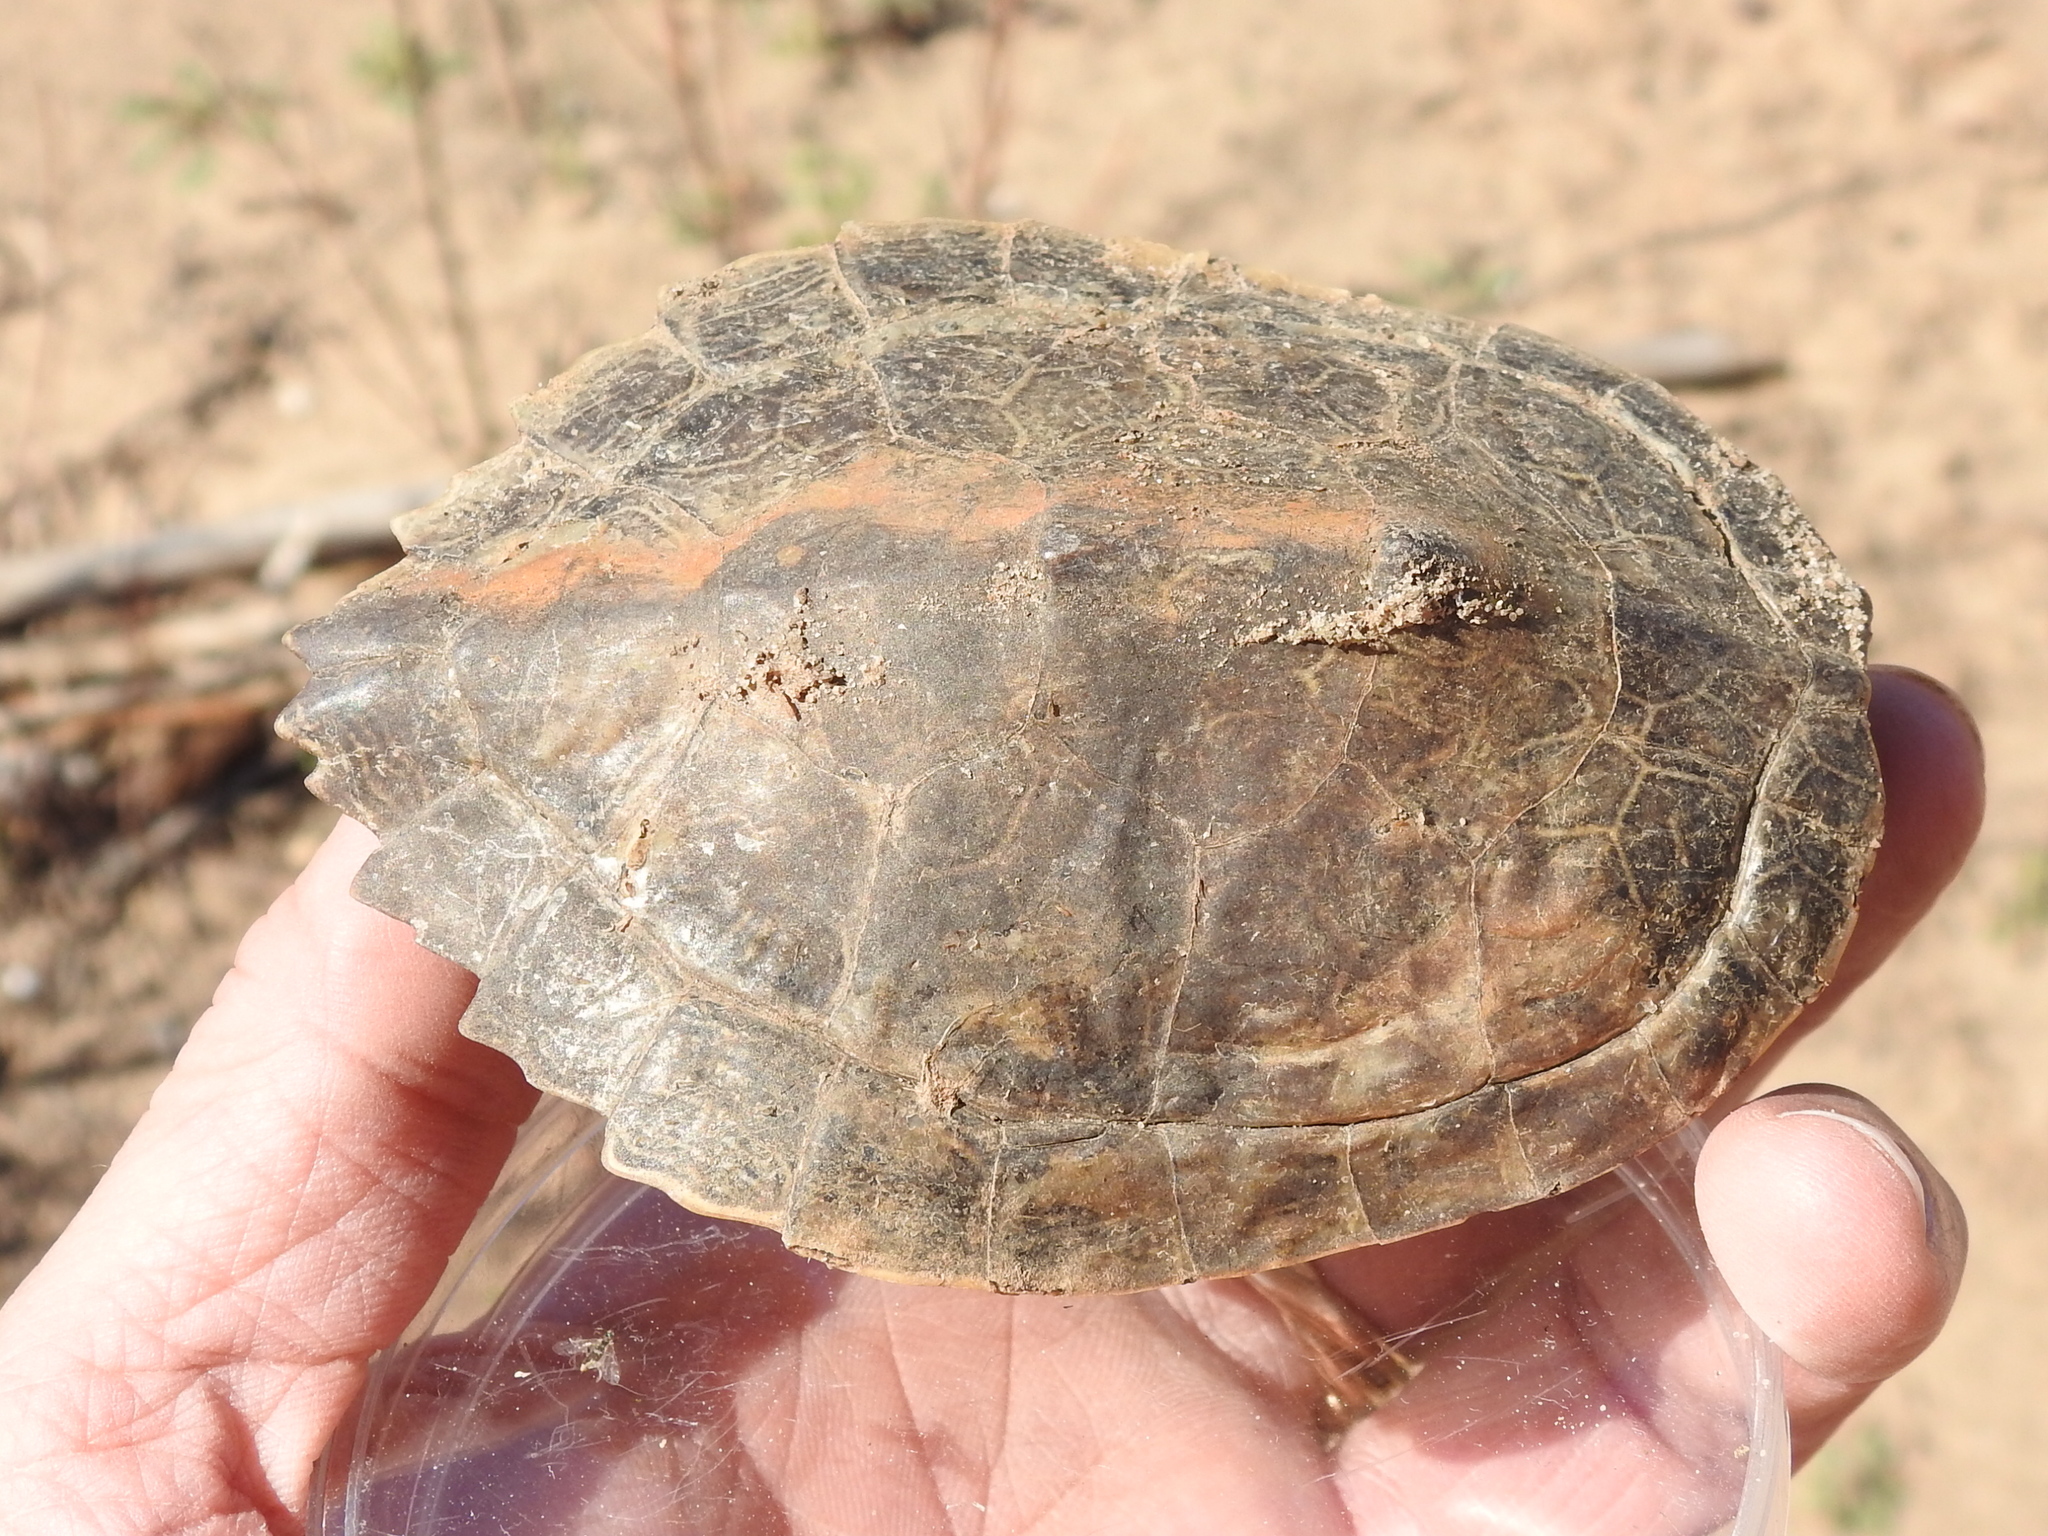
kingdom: Animalia
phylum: Chordata
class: Testudines
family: Emydidae
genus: Graptemys
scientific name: Graptemys
